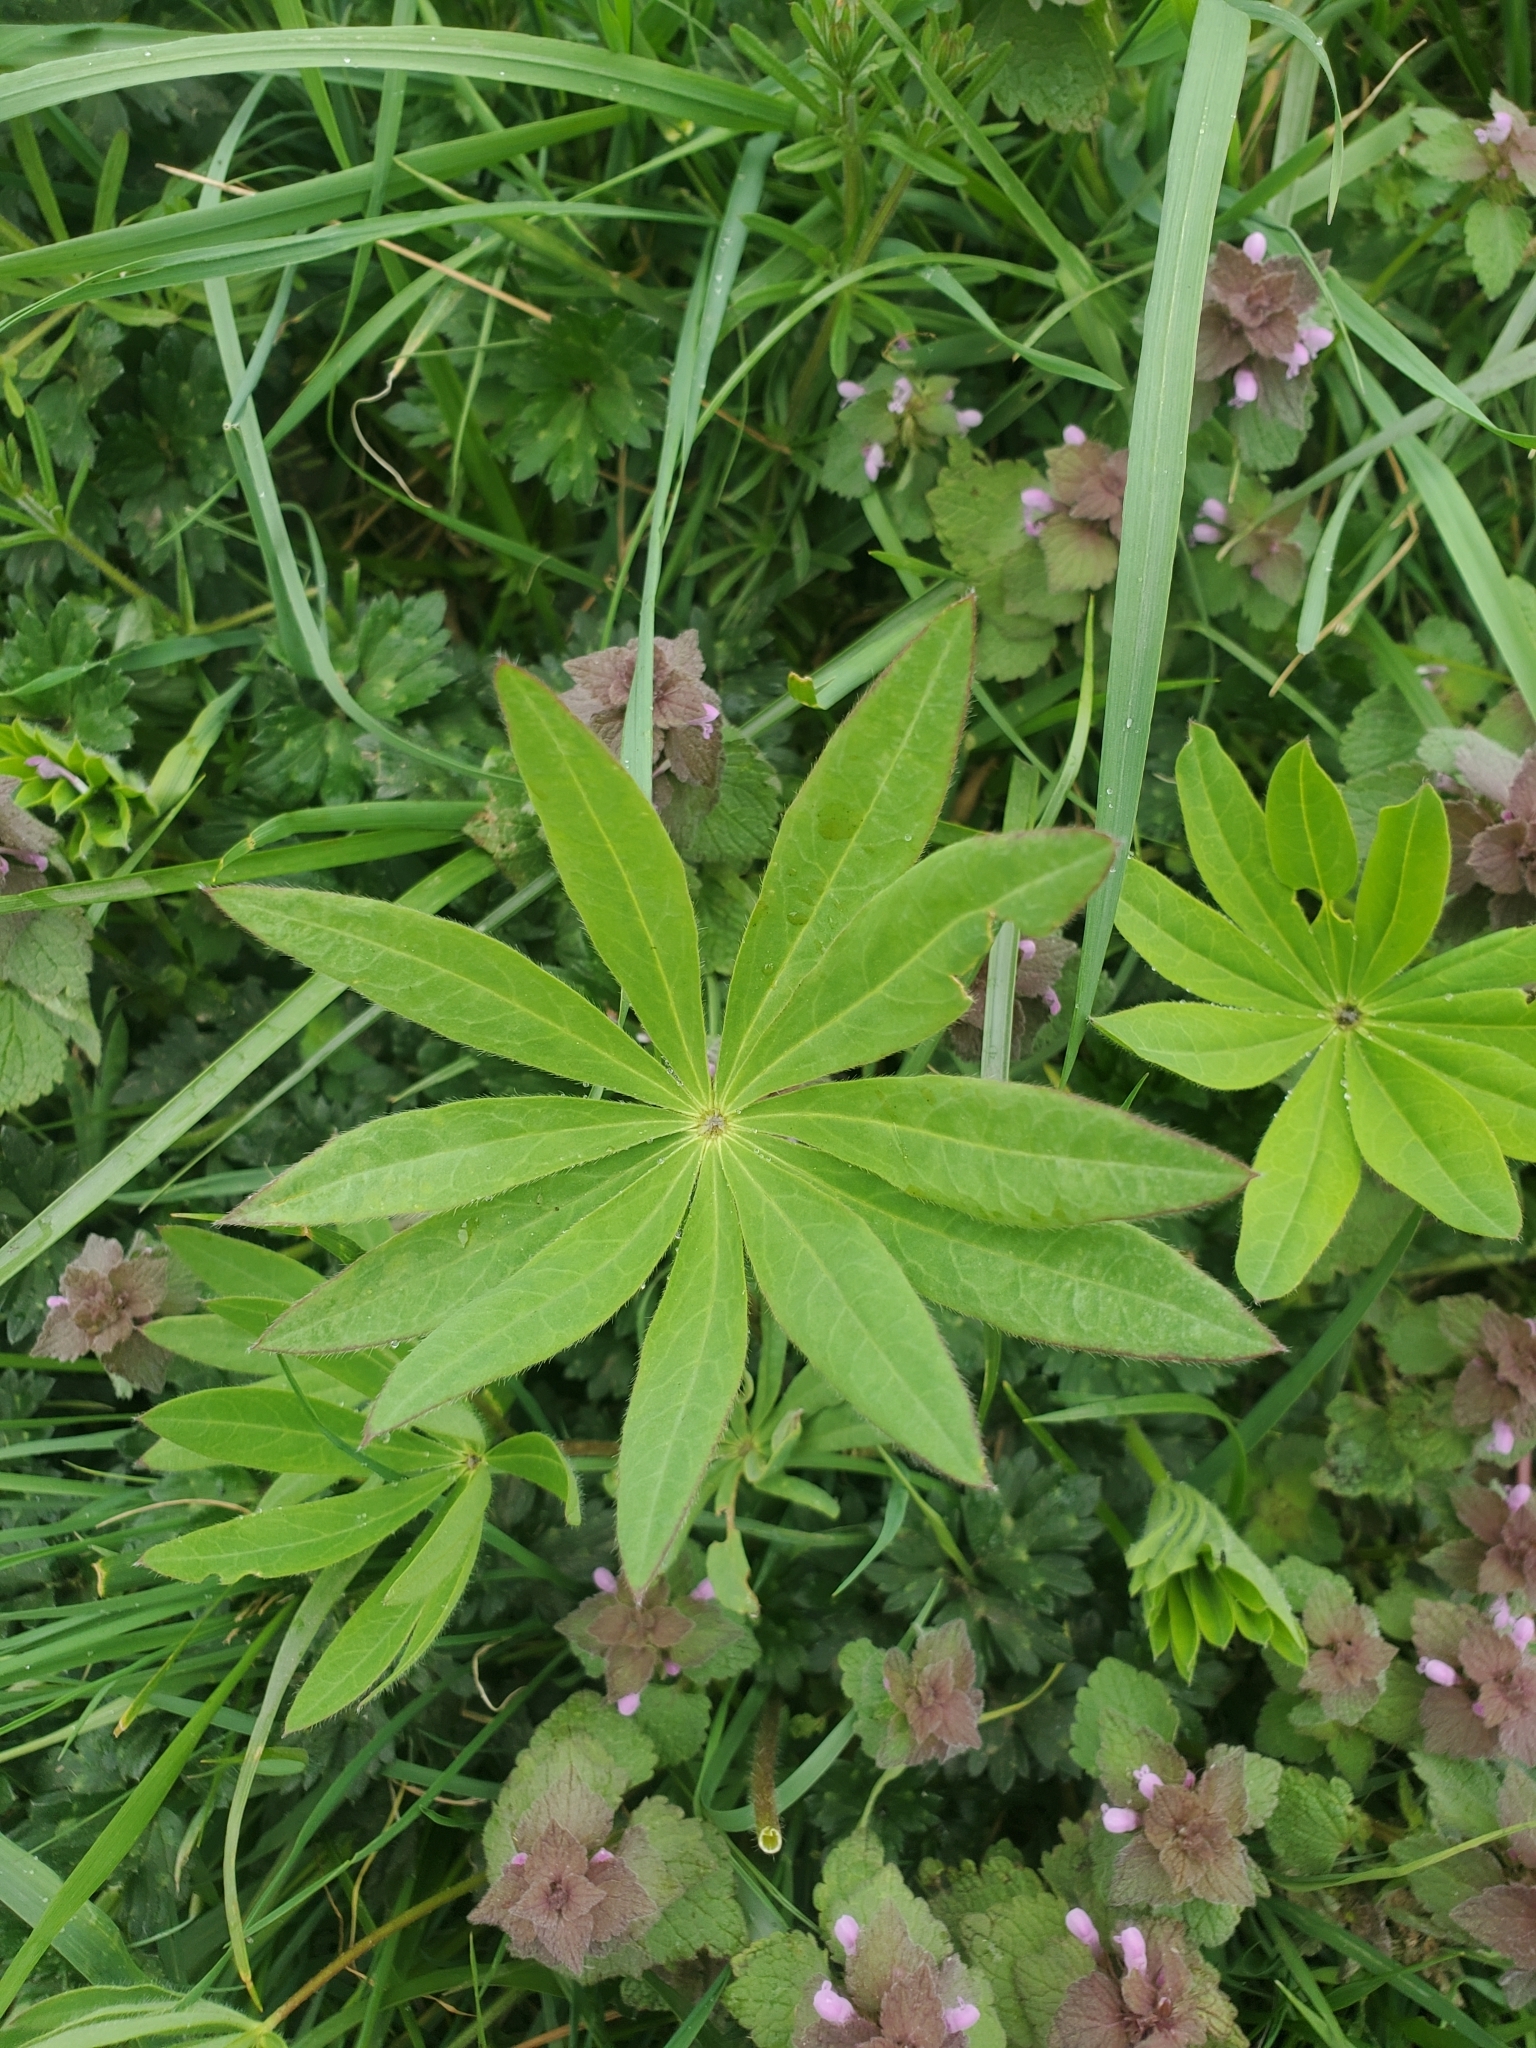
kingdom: Plantae
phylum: Tracheophyta
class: Magnoliopsida
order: Fabales
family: Fabaceae
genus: Lupinus
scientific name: Lupinus polyphyllus
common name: Garden lupin
